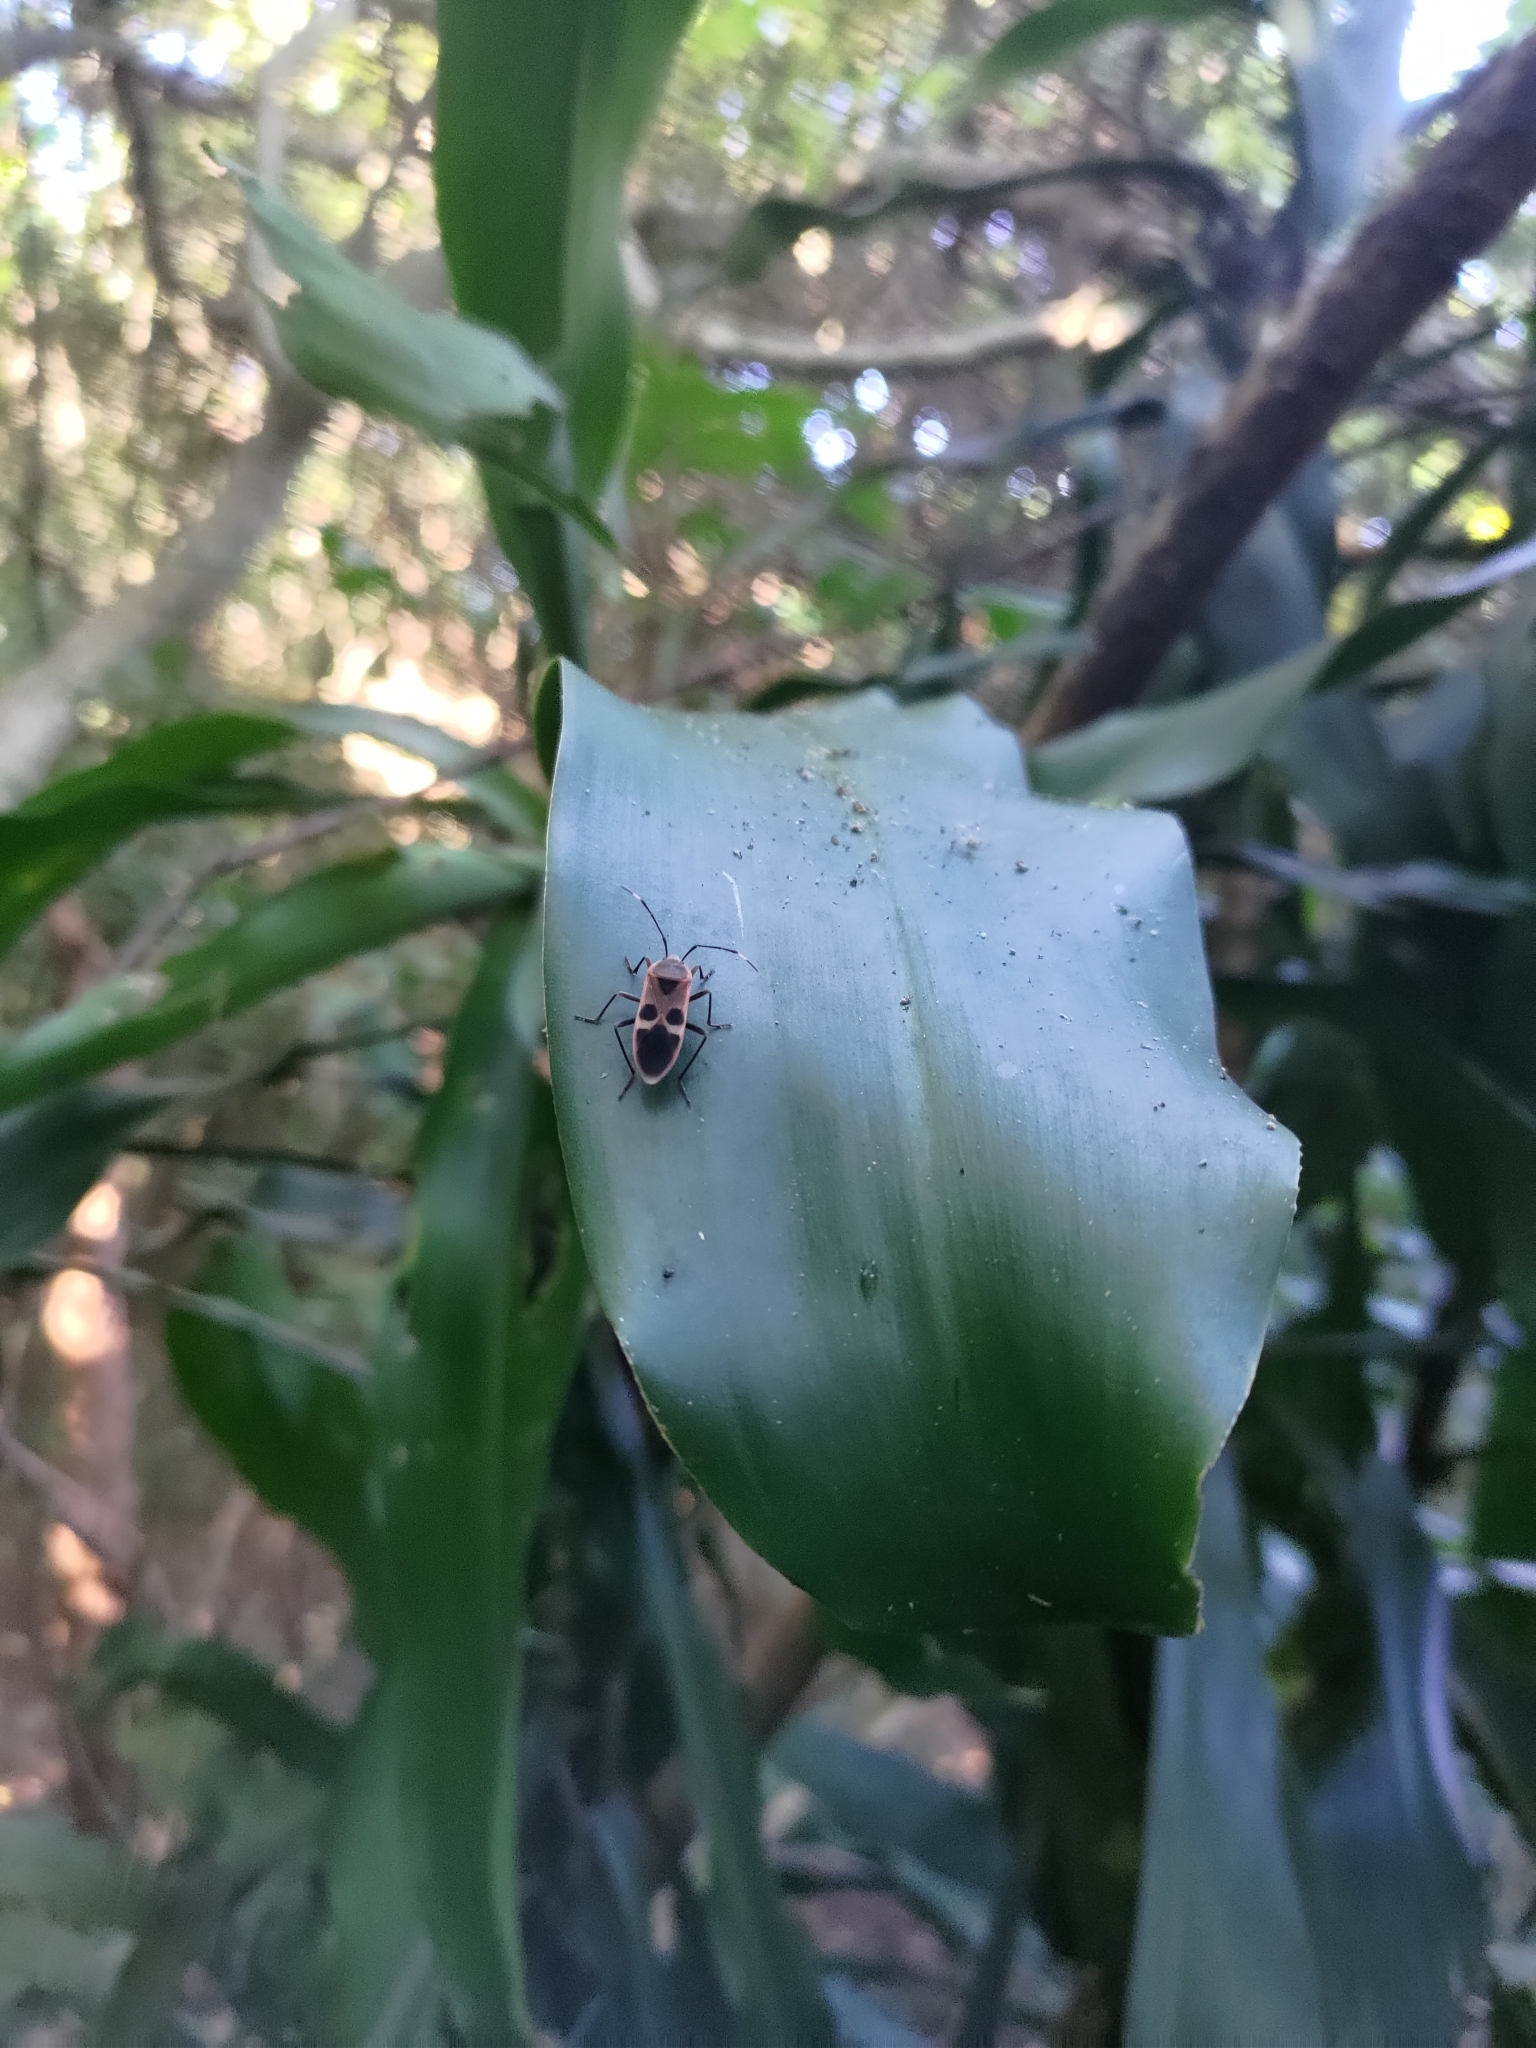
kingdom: Animalia
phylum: Arthropoda
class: Insecta
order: Hemiptera
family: Largidae
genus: Physopelta
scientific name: Physopelta gutta
